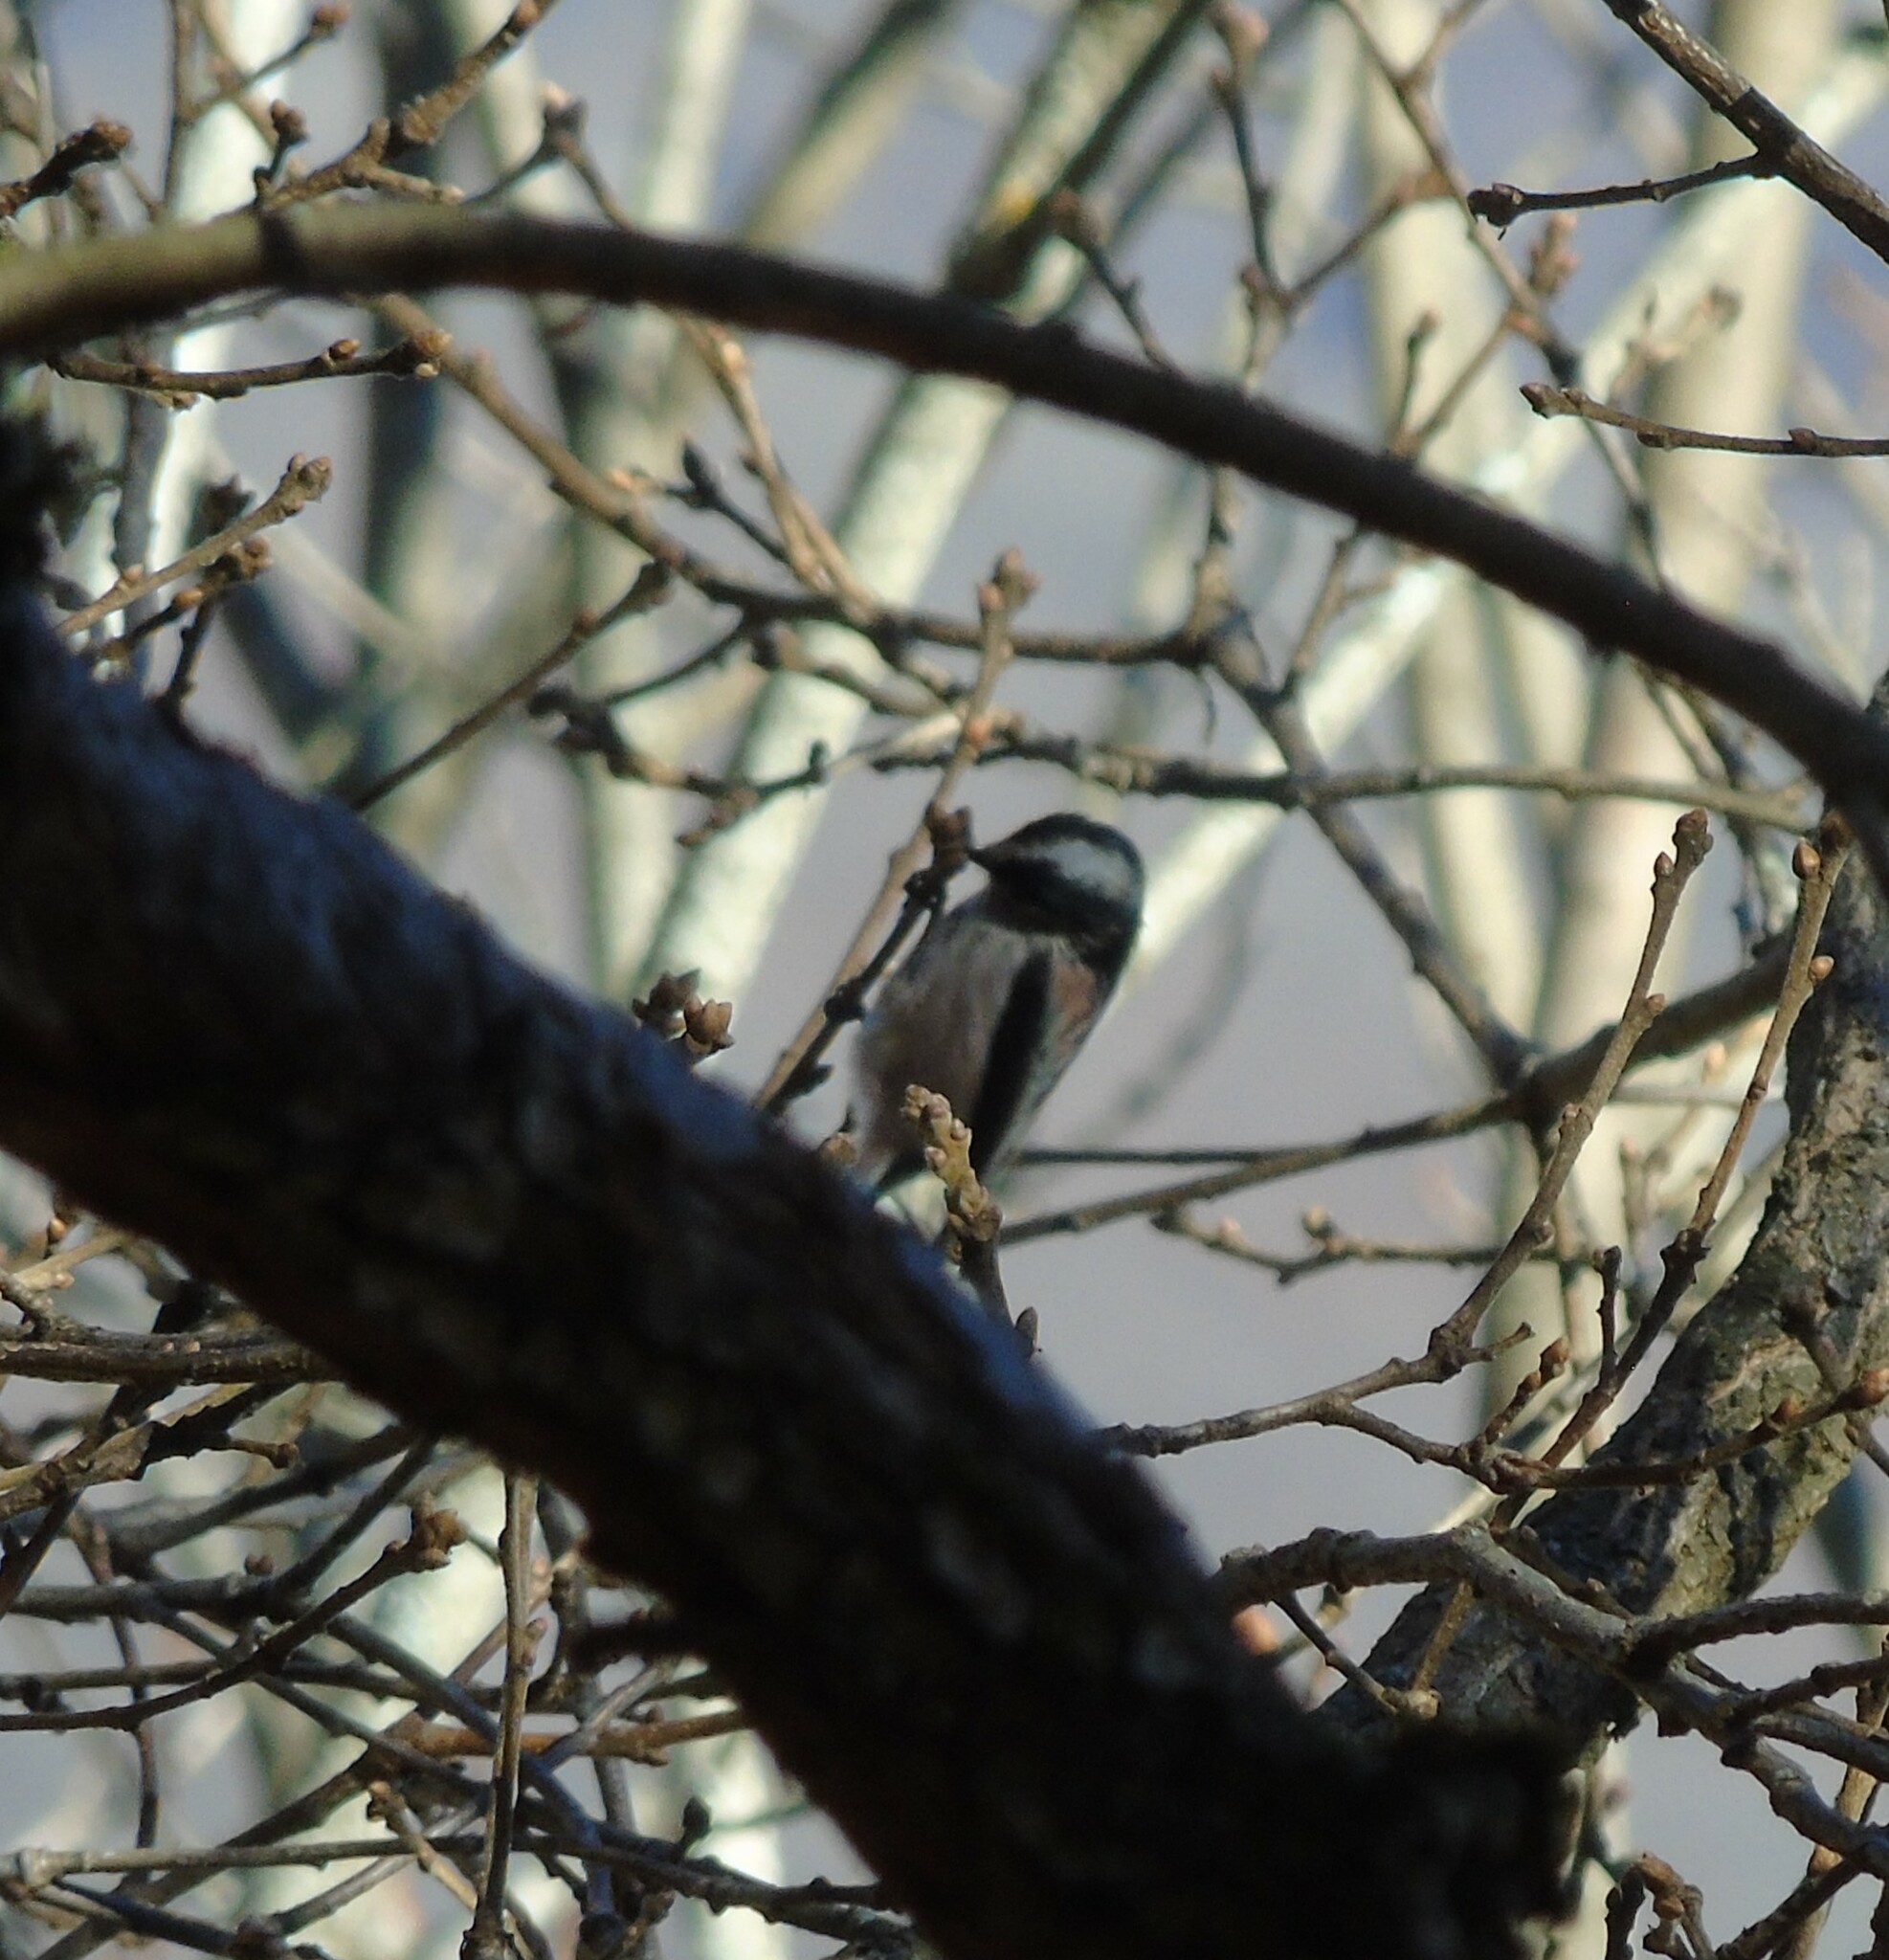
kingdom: Animalia
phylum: Chordata
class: Aves
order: Passeriformes
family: Aegithalidae
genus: Aegithalos
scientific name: Aegithalos caudatus
